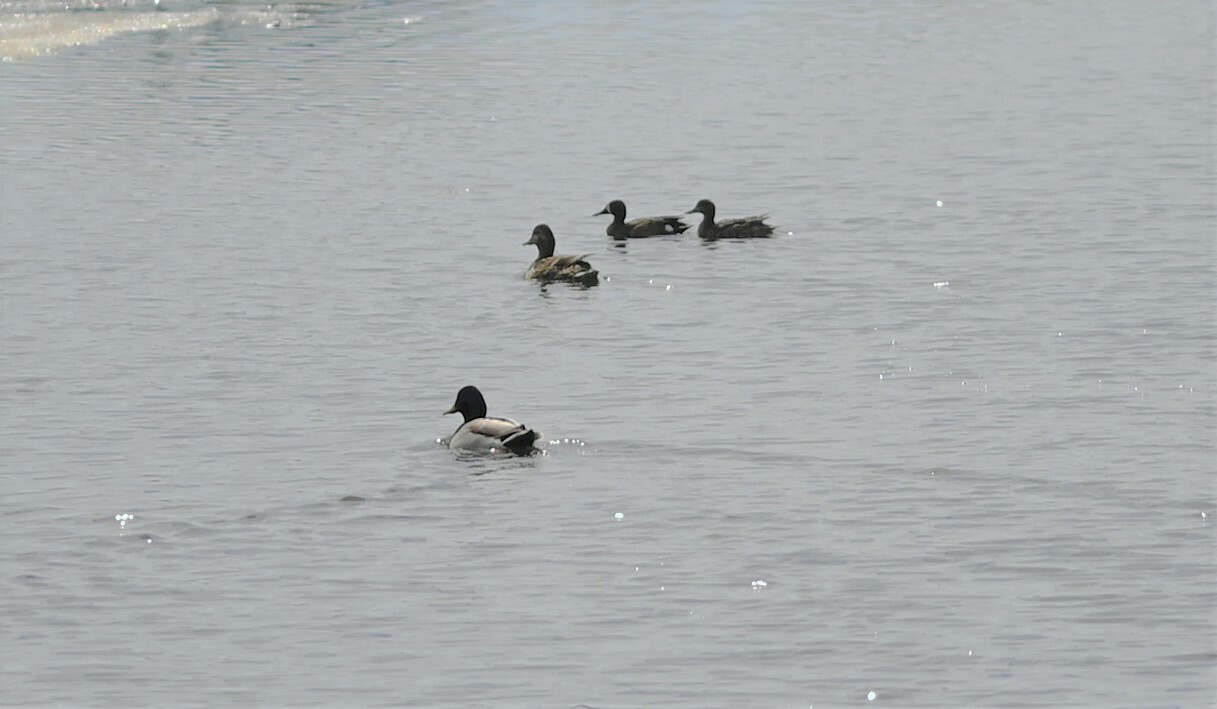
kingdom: Animalia
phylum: Chordata
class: Aves
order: Anseriformes
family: Anatidae
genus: Anas
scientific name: Anas platyrhynchos
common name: Mallard
